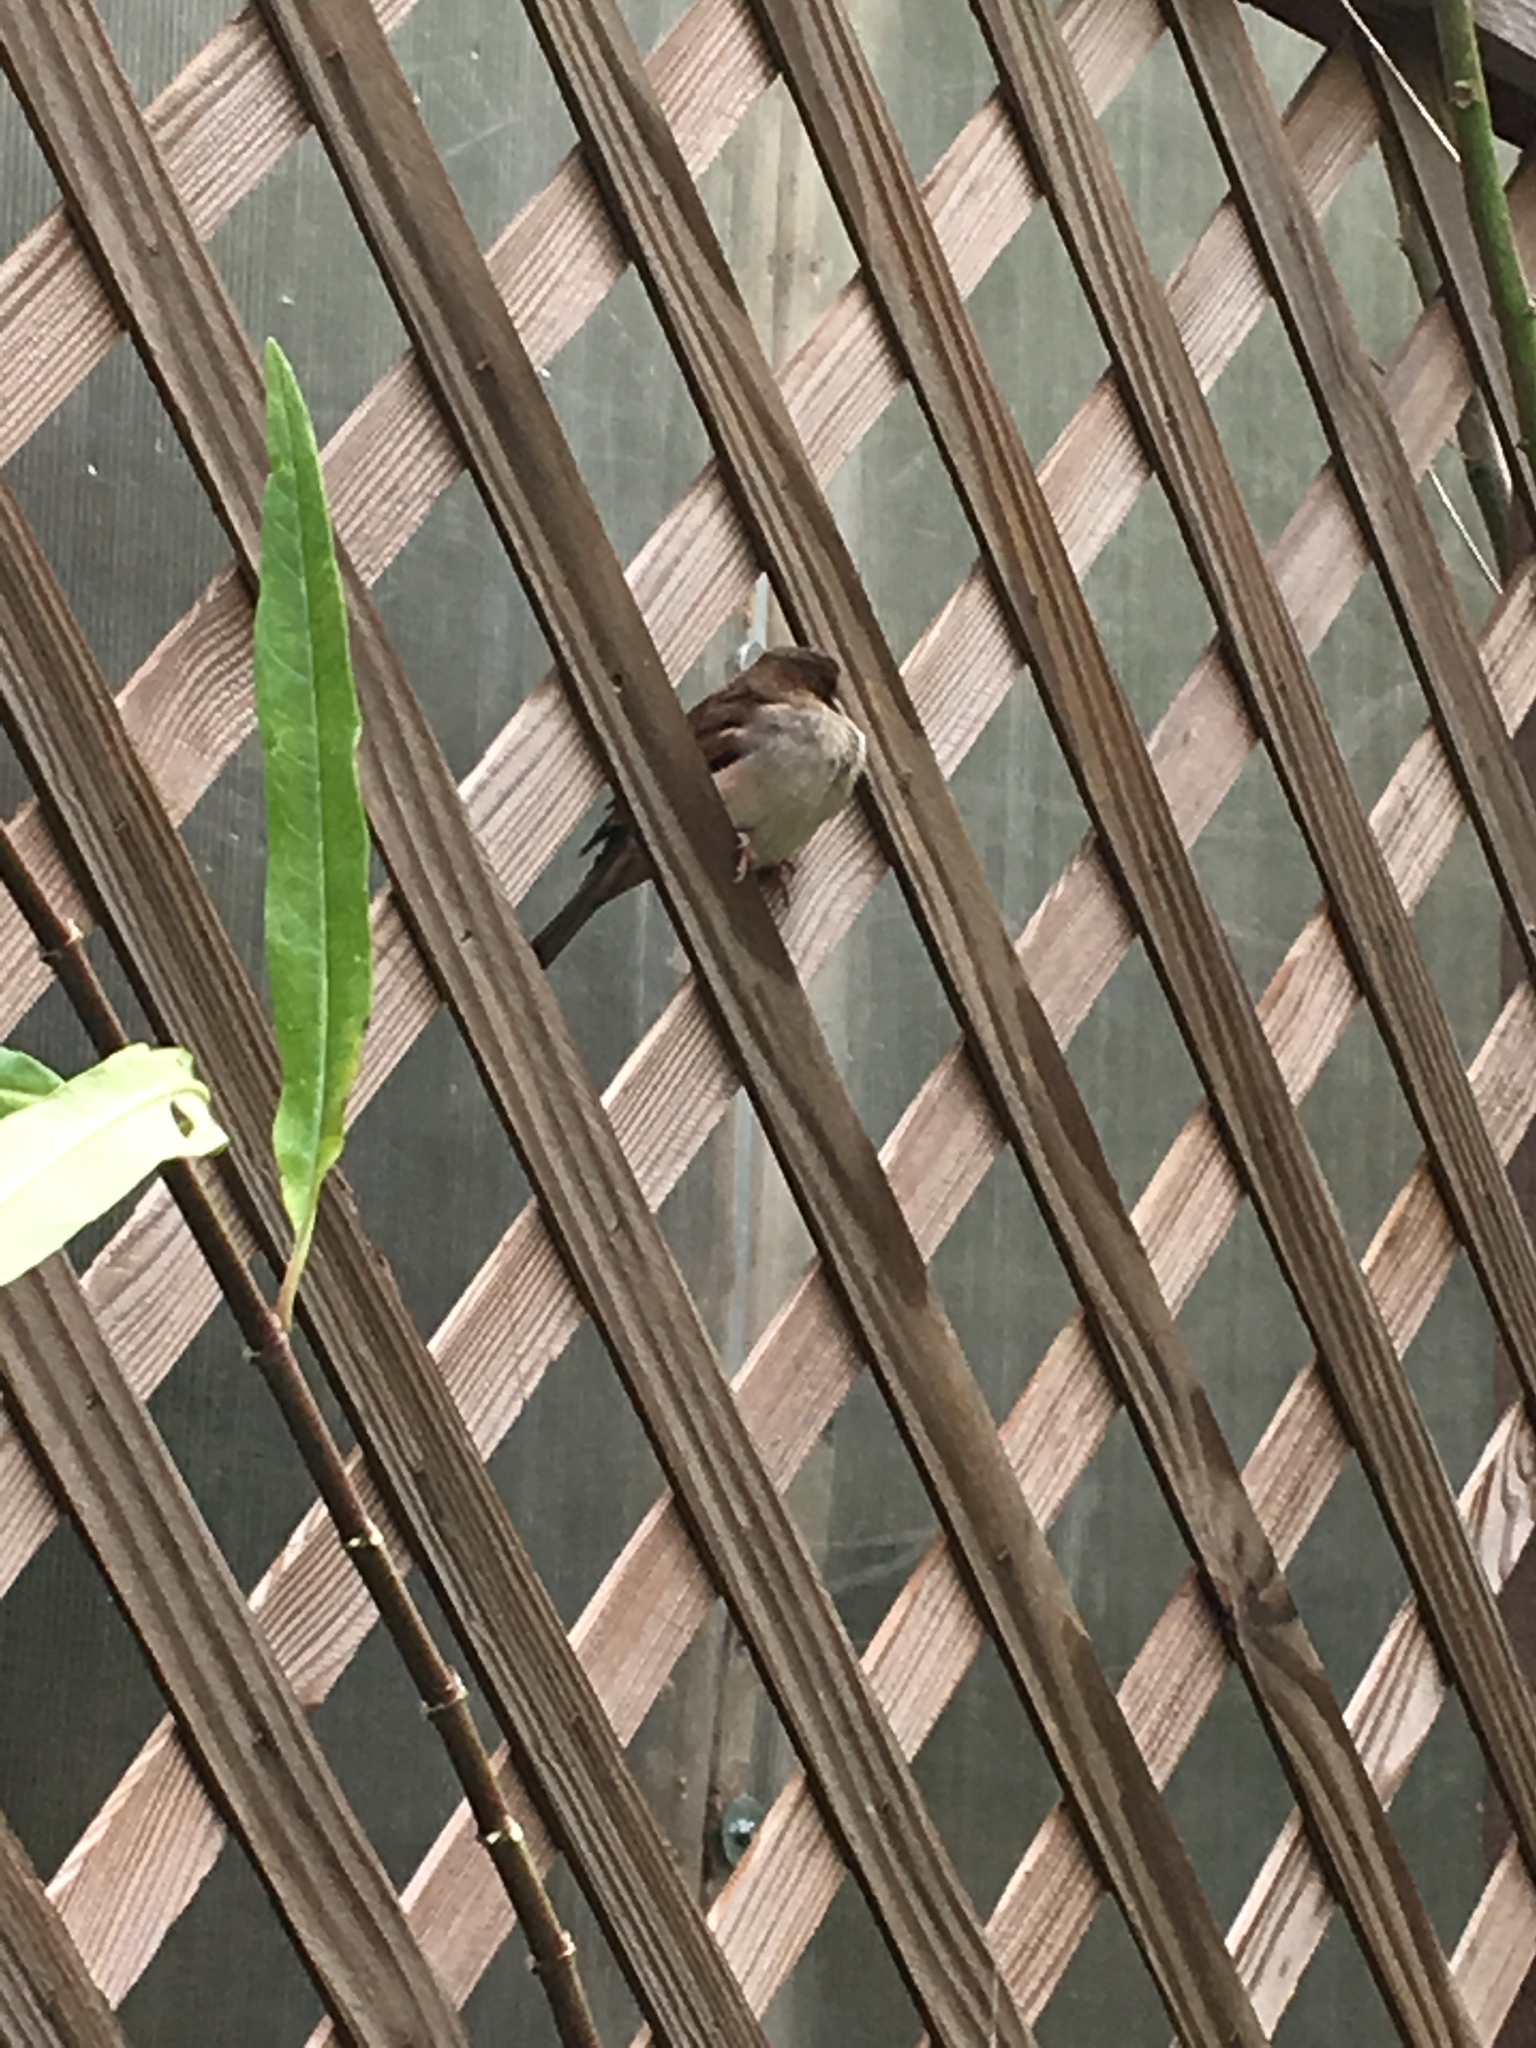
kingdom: Animalia
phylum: Chordata
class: Aves
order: Passeriformes
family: Passeridae
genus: Passer
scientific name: Passer domesticus
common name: House sparrow
